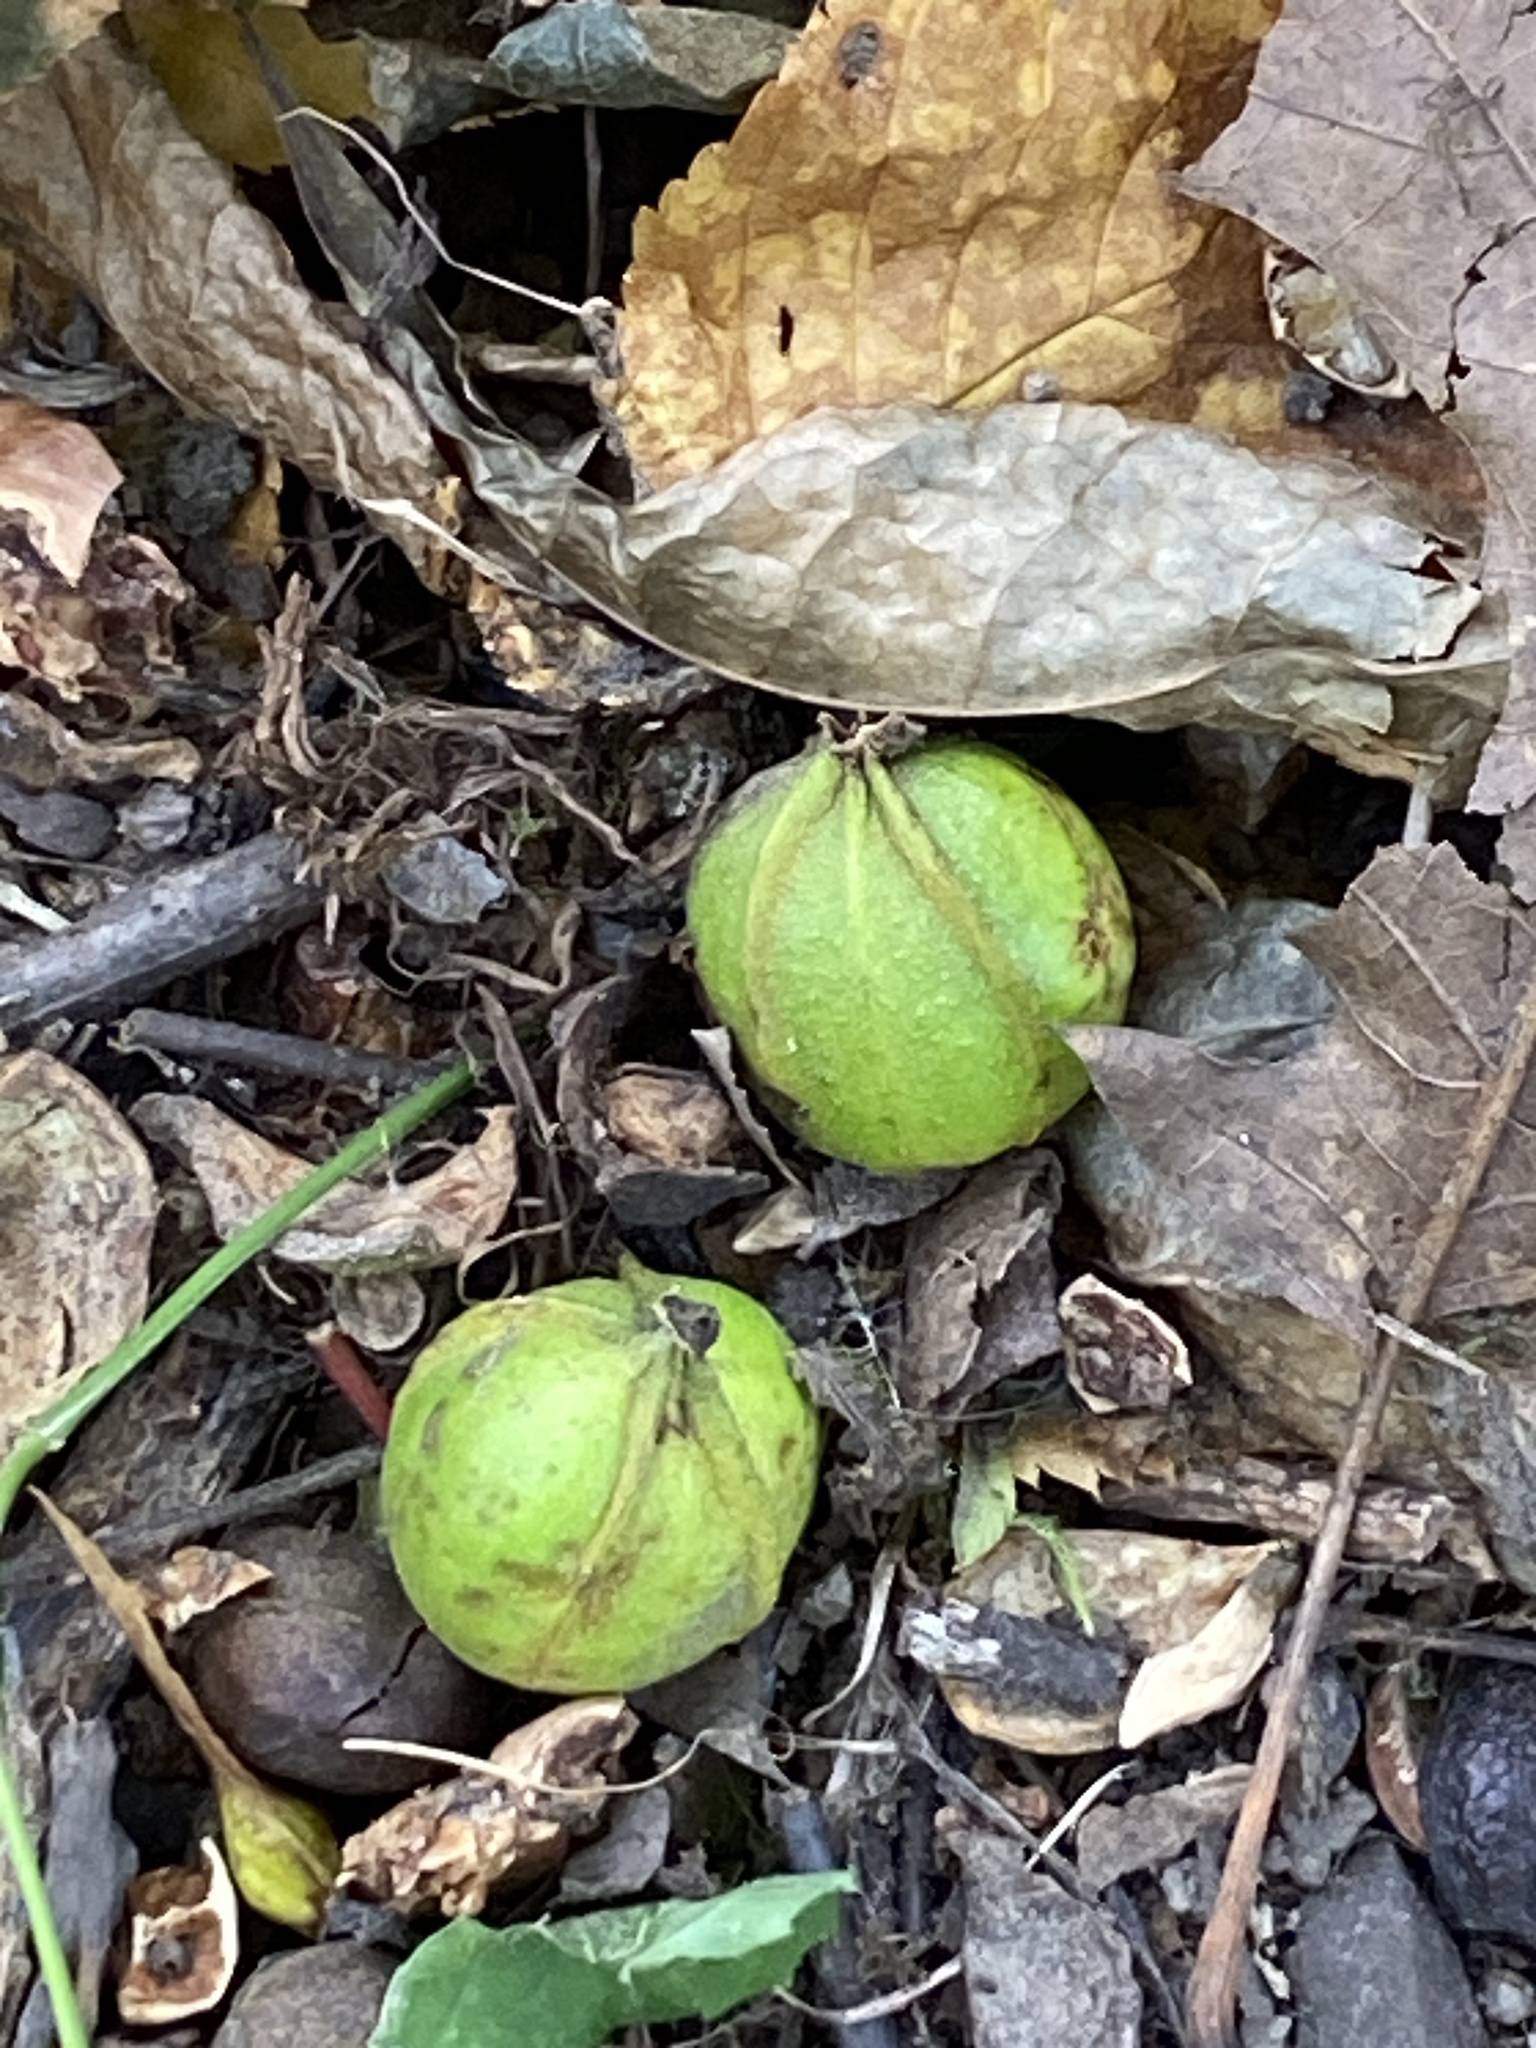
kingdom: Plantae
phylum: Tracheophyta
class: Magnoliopsida
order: Fagales
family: Juglandaceae
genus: Carya
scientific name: Carya cordiformis
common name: Bitternut hickory
